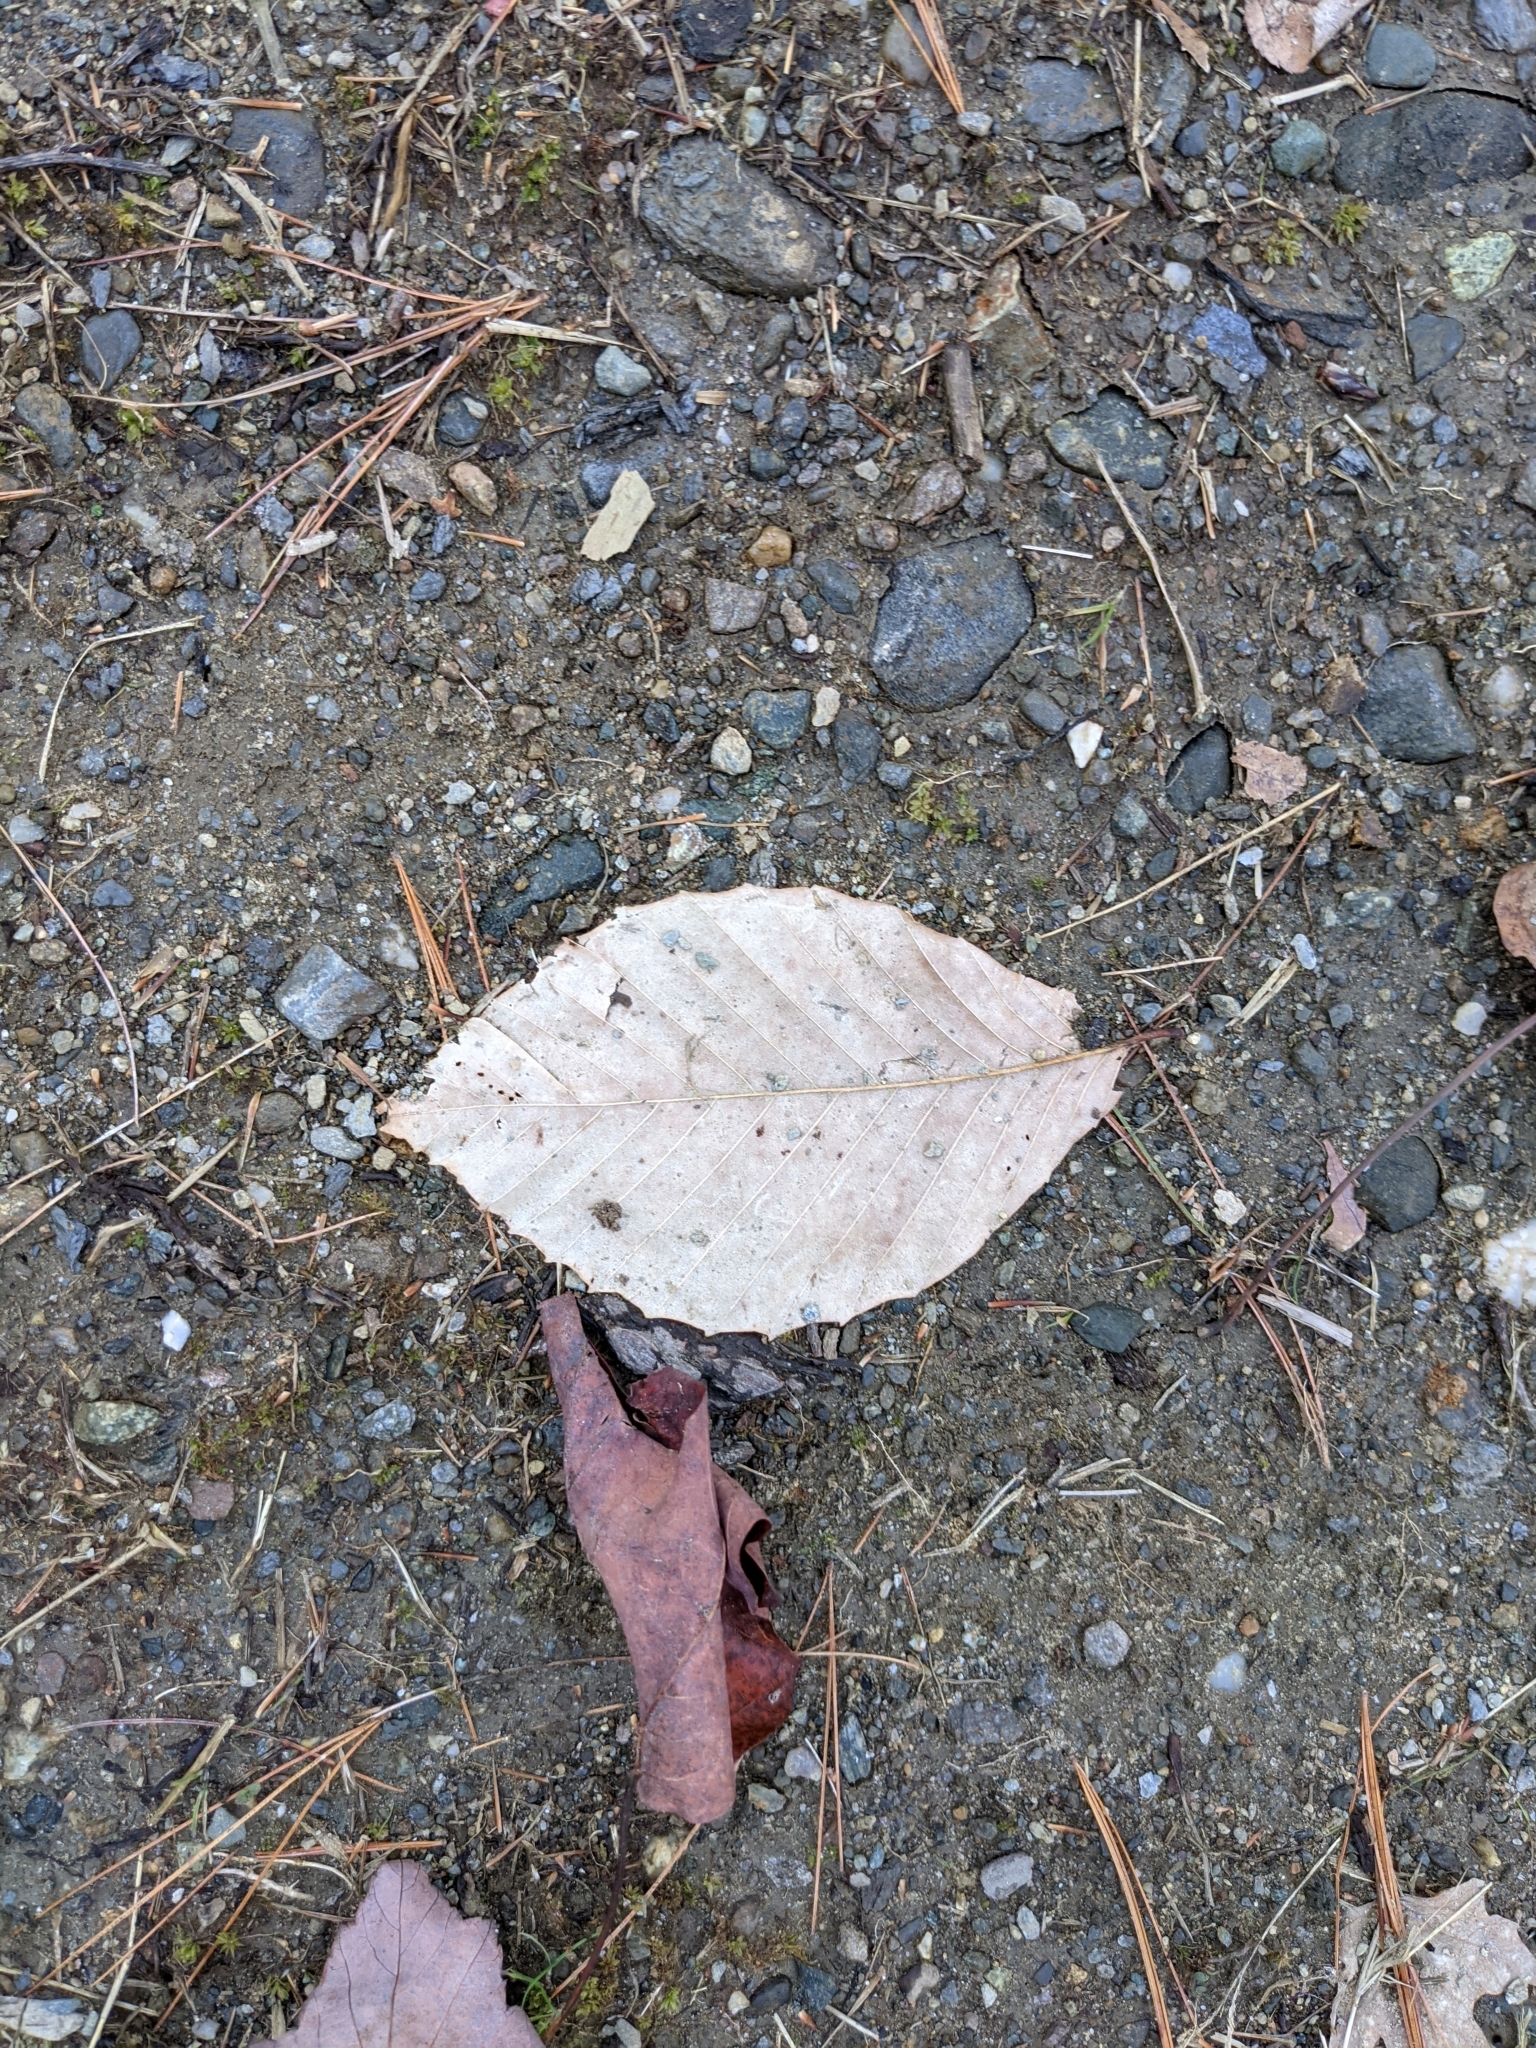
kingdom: Plantae
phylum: Tracheophyta
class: Magnoliopsida
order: Fagales
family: Fagaceae
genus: Fagus
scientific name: Fagus grandifolia
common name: American beech
